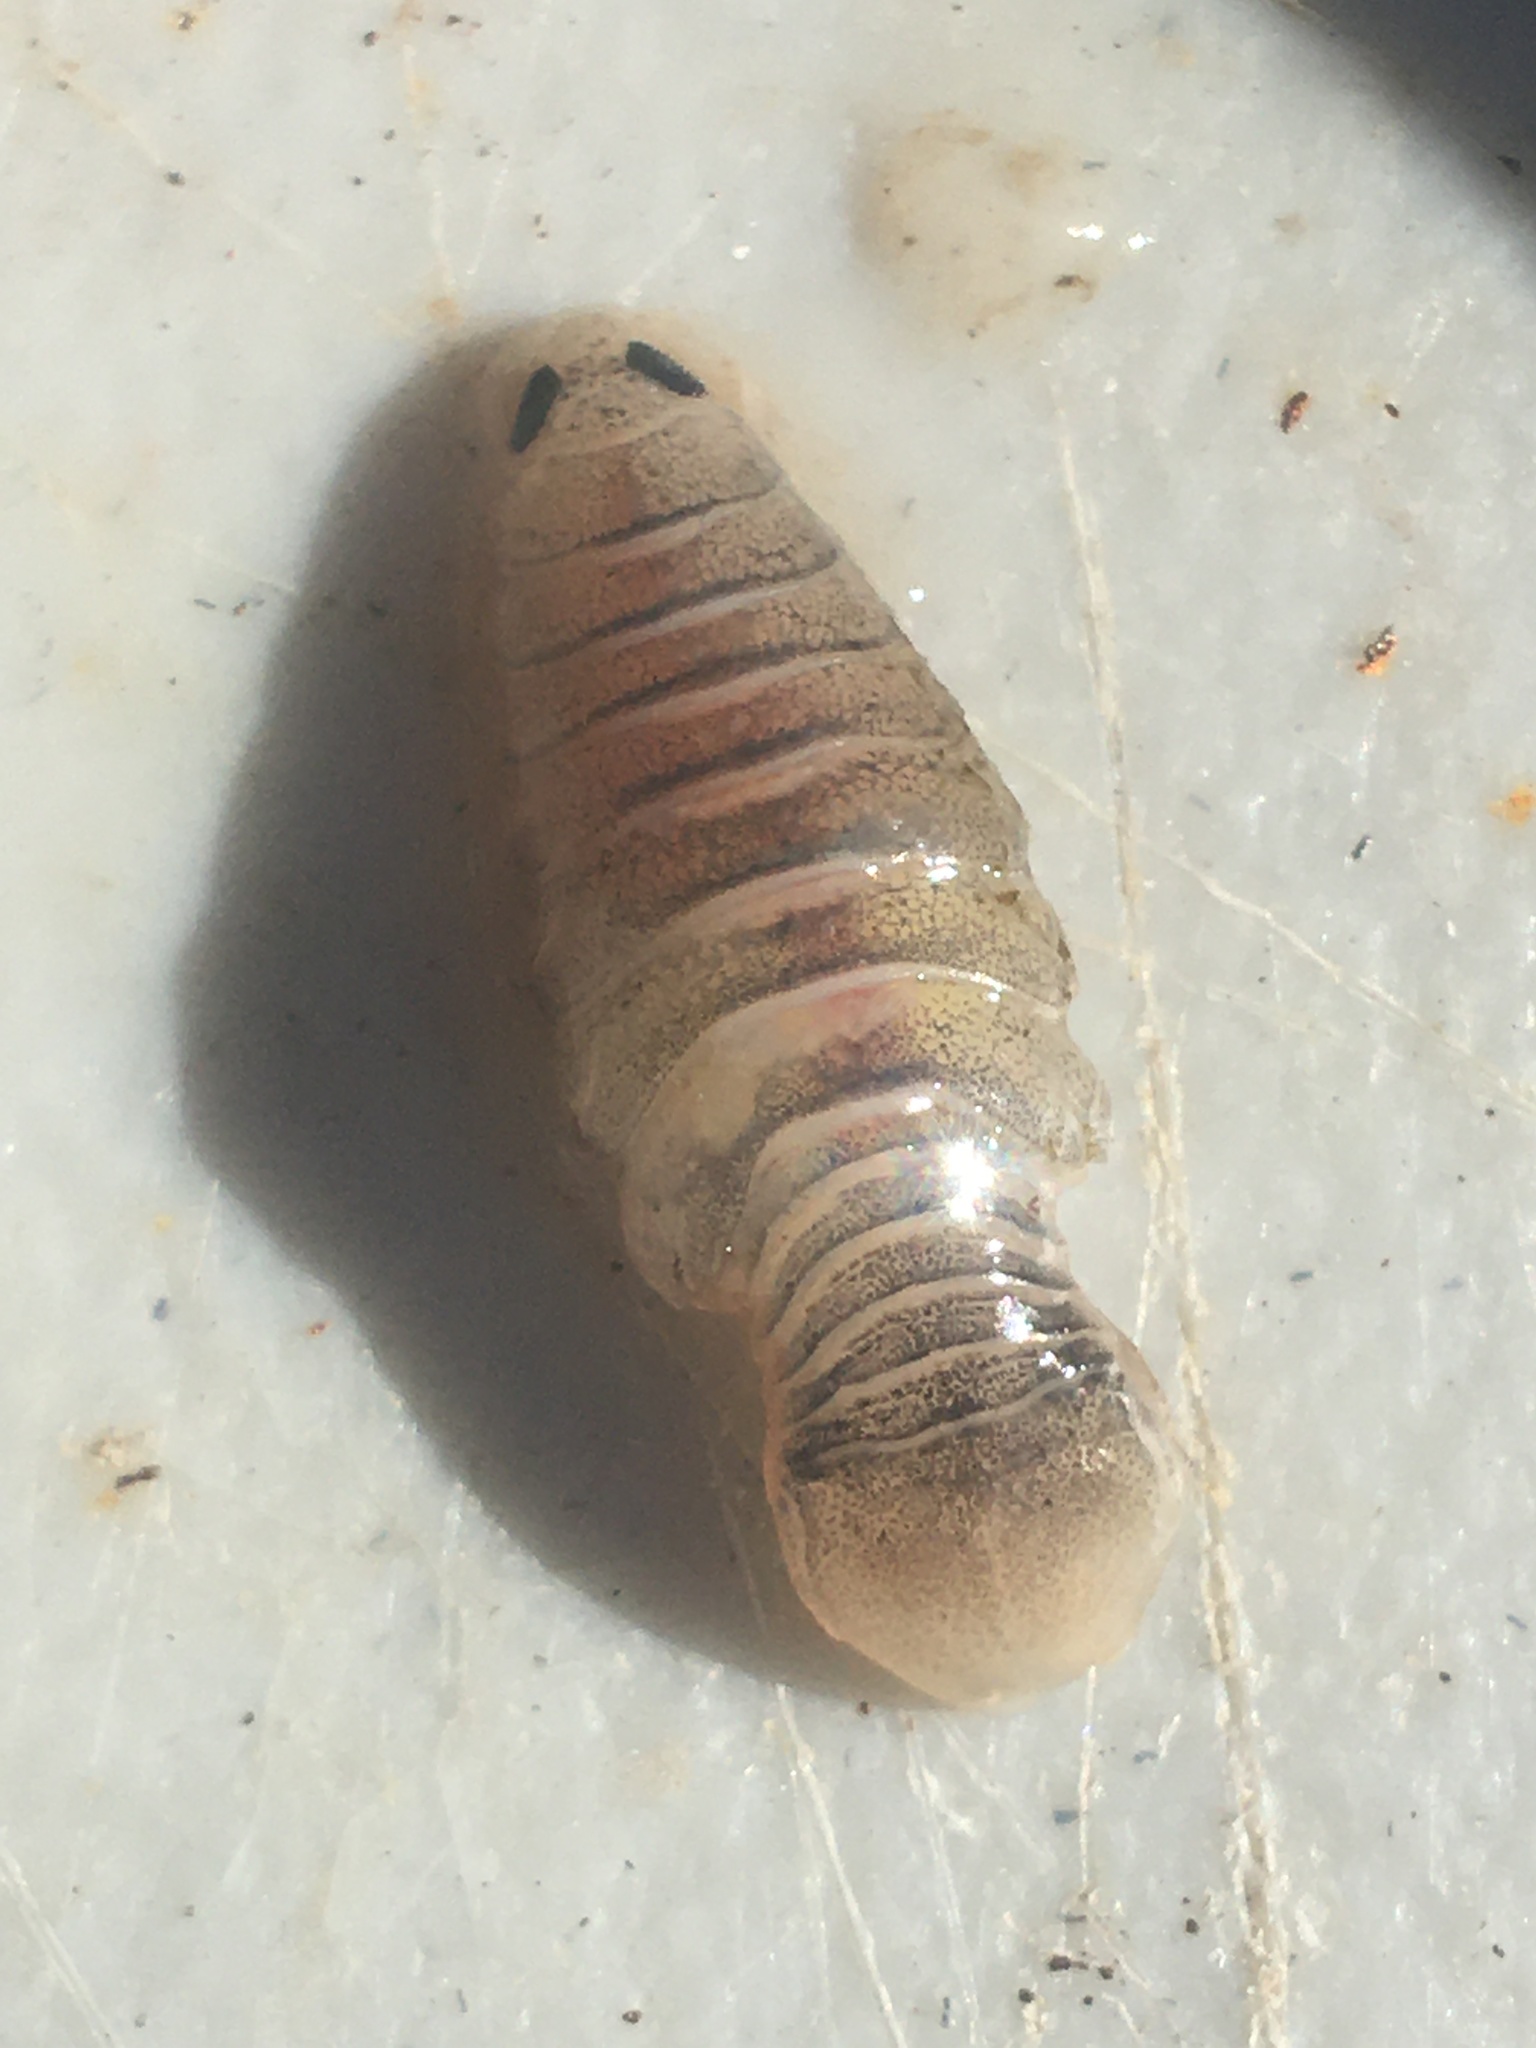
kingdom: Animalia
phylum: Arthropoda
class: Malacostraca
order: Isopoda
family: Cymothoidae
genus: Anilocra
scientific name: Anilocra acuta
